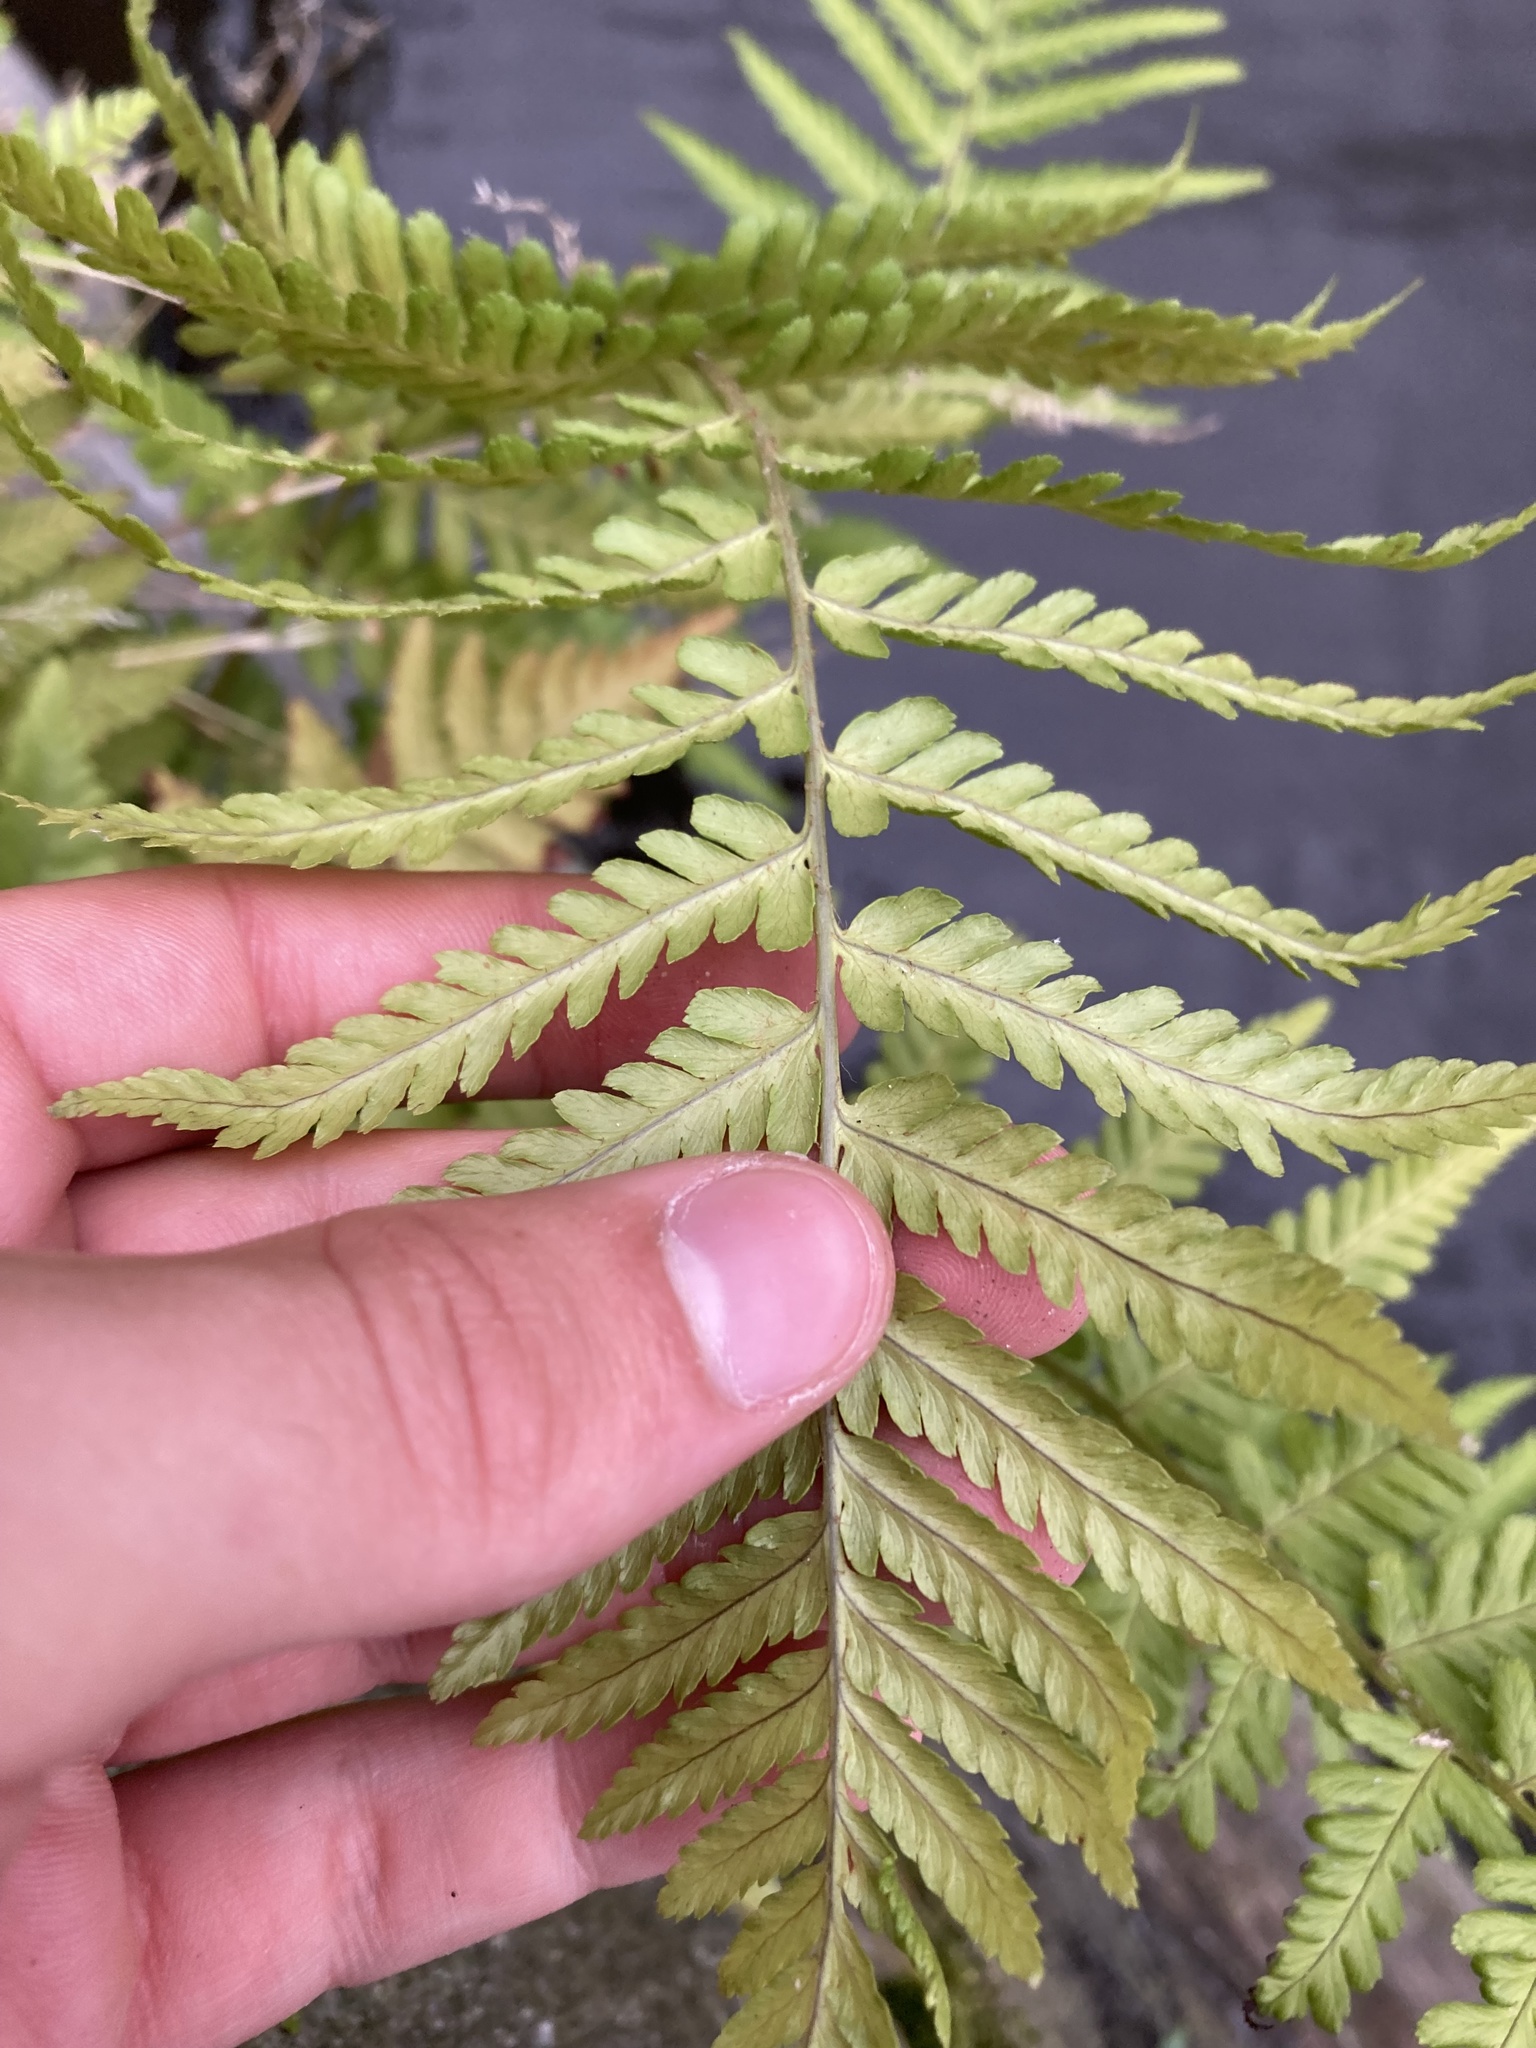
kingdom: Plantae
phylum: Tracheophyta
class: Polypodiopsida
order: Polypodiales
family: Dryopteridaceae
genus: Dryopteris
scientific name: Dryopteris filix-mas
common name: Male fern
